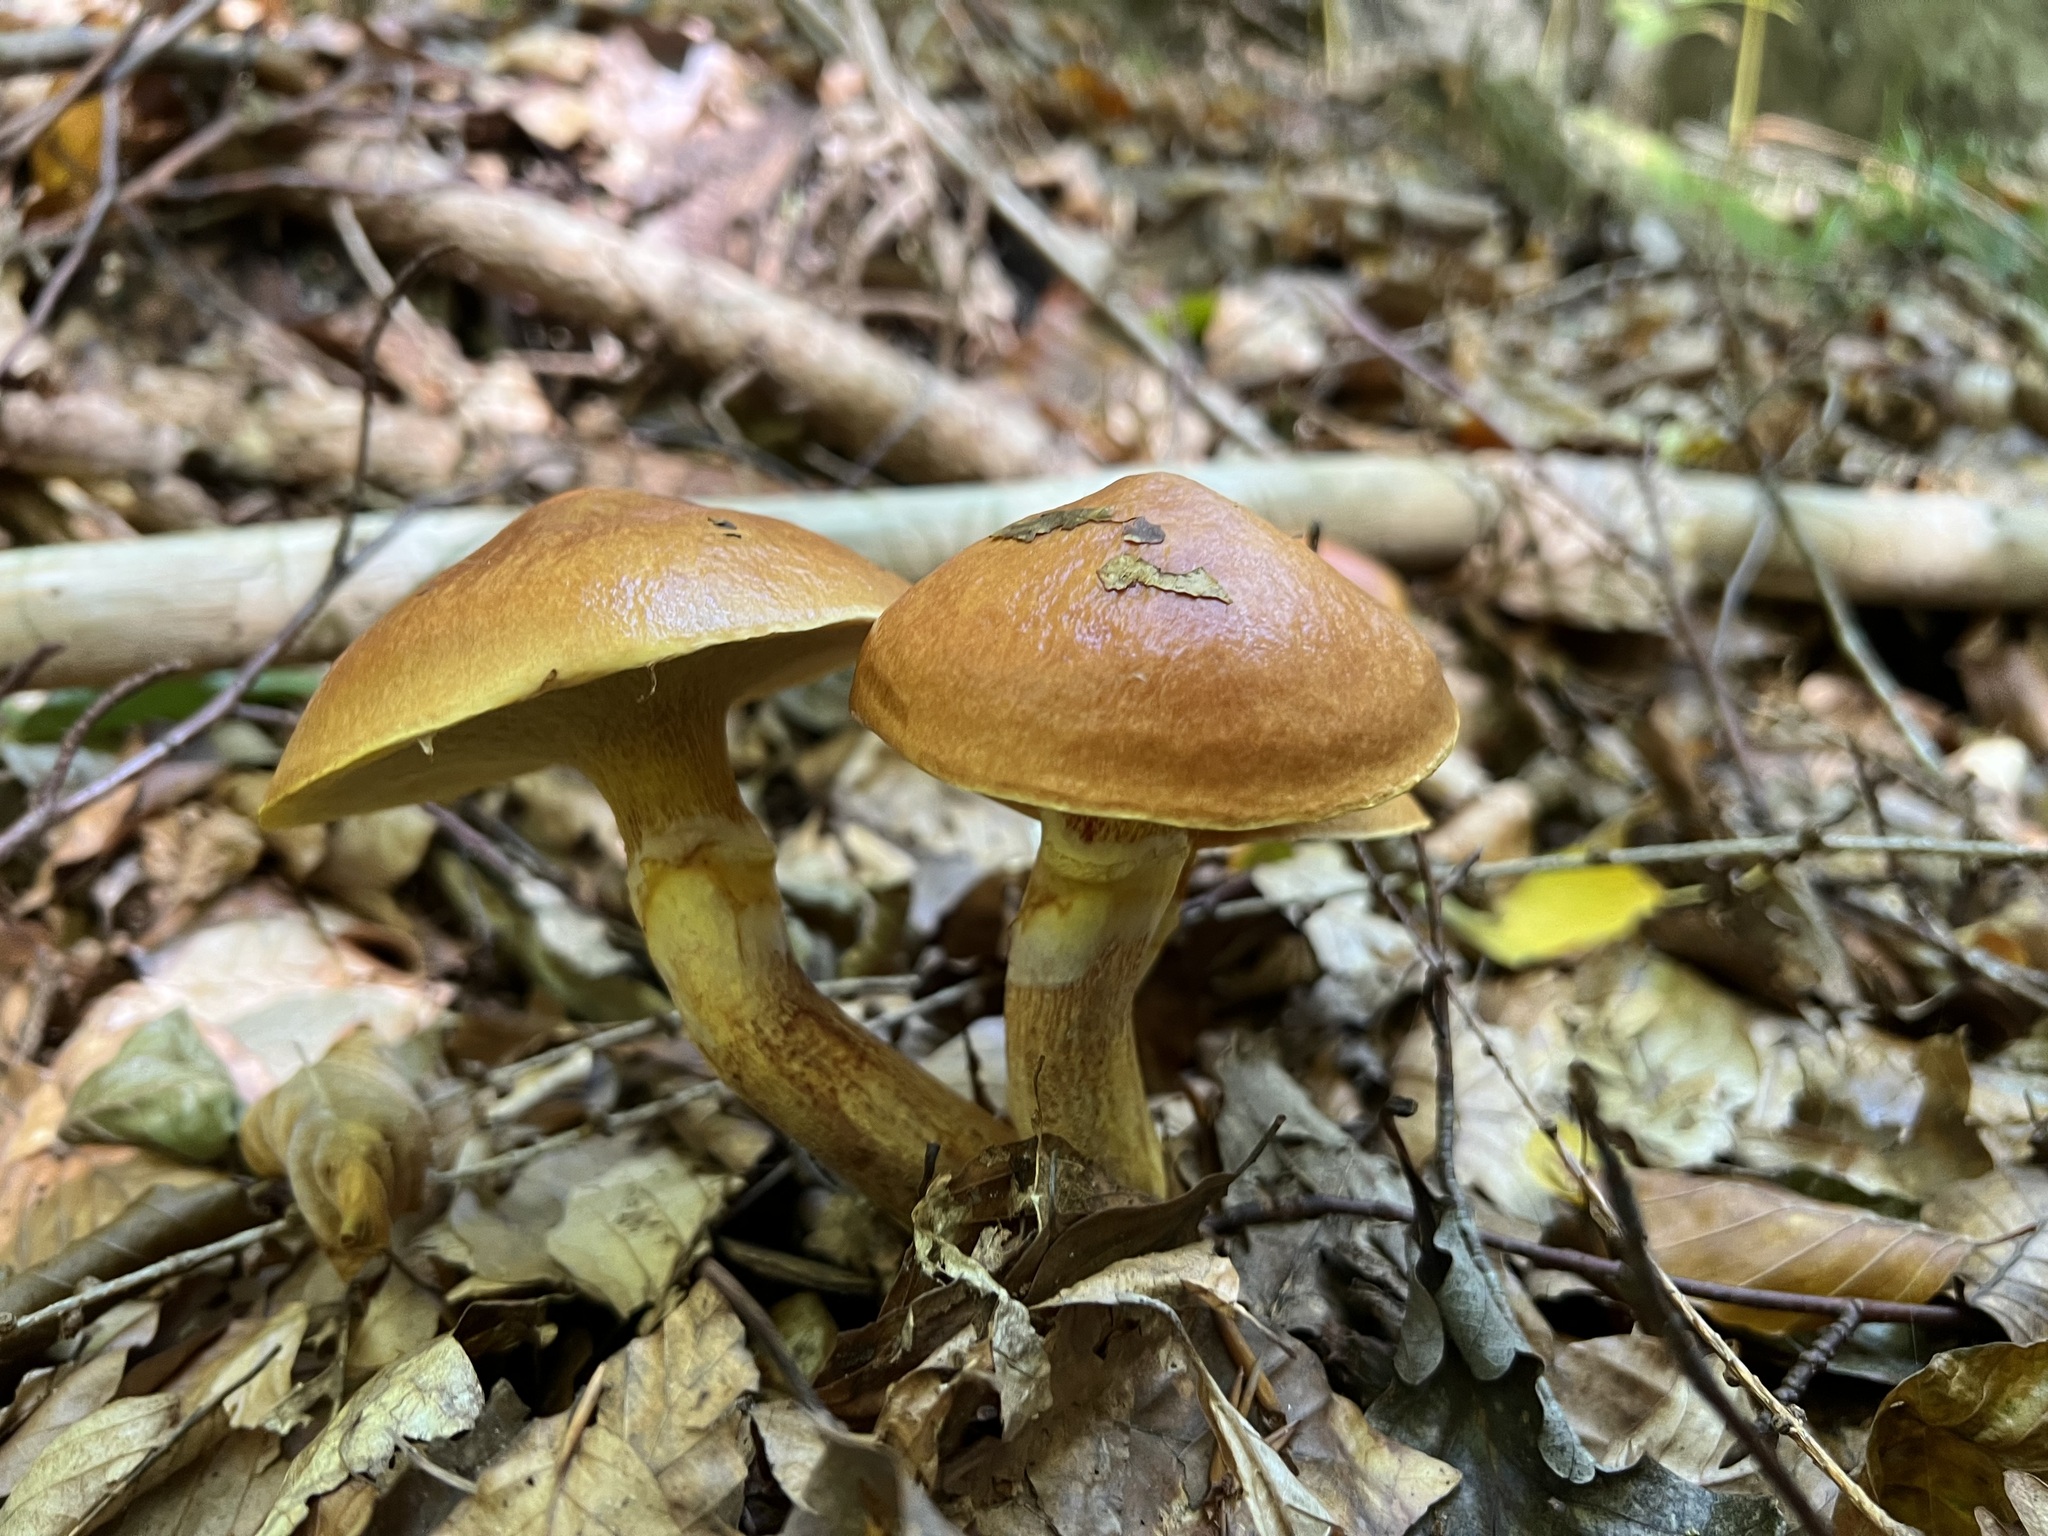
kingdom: Fungi
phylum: Basidiomycota
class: Agaricomycetes
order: Boletales
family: Suillaceae
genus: Suillus
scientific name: Suillus grevillei
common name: Larch bolete
